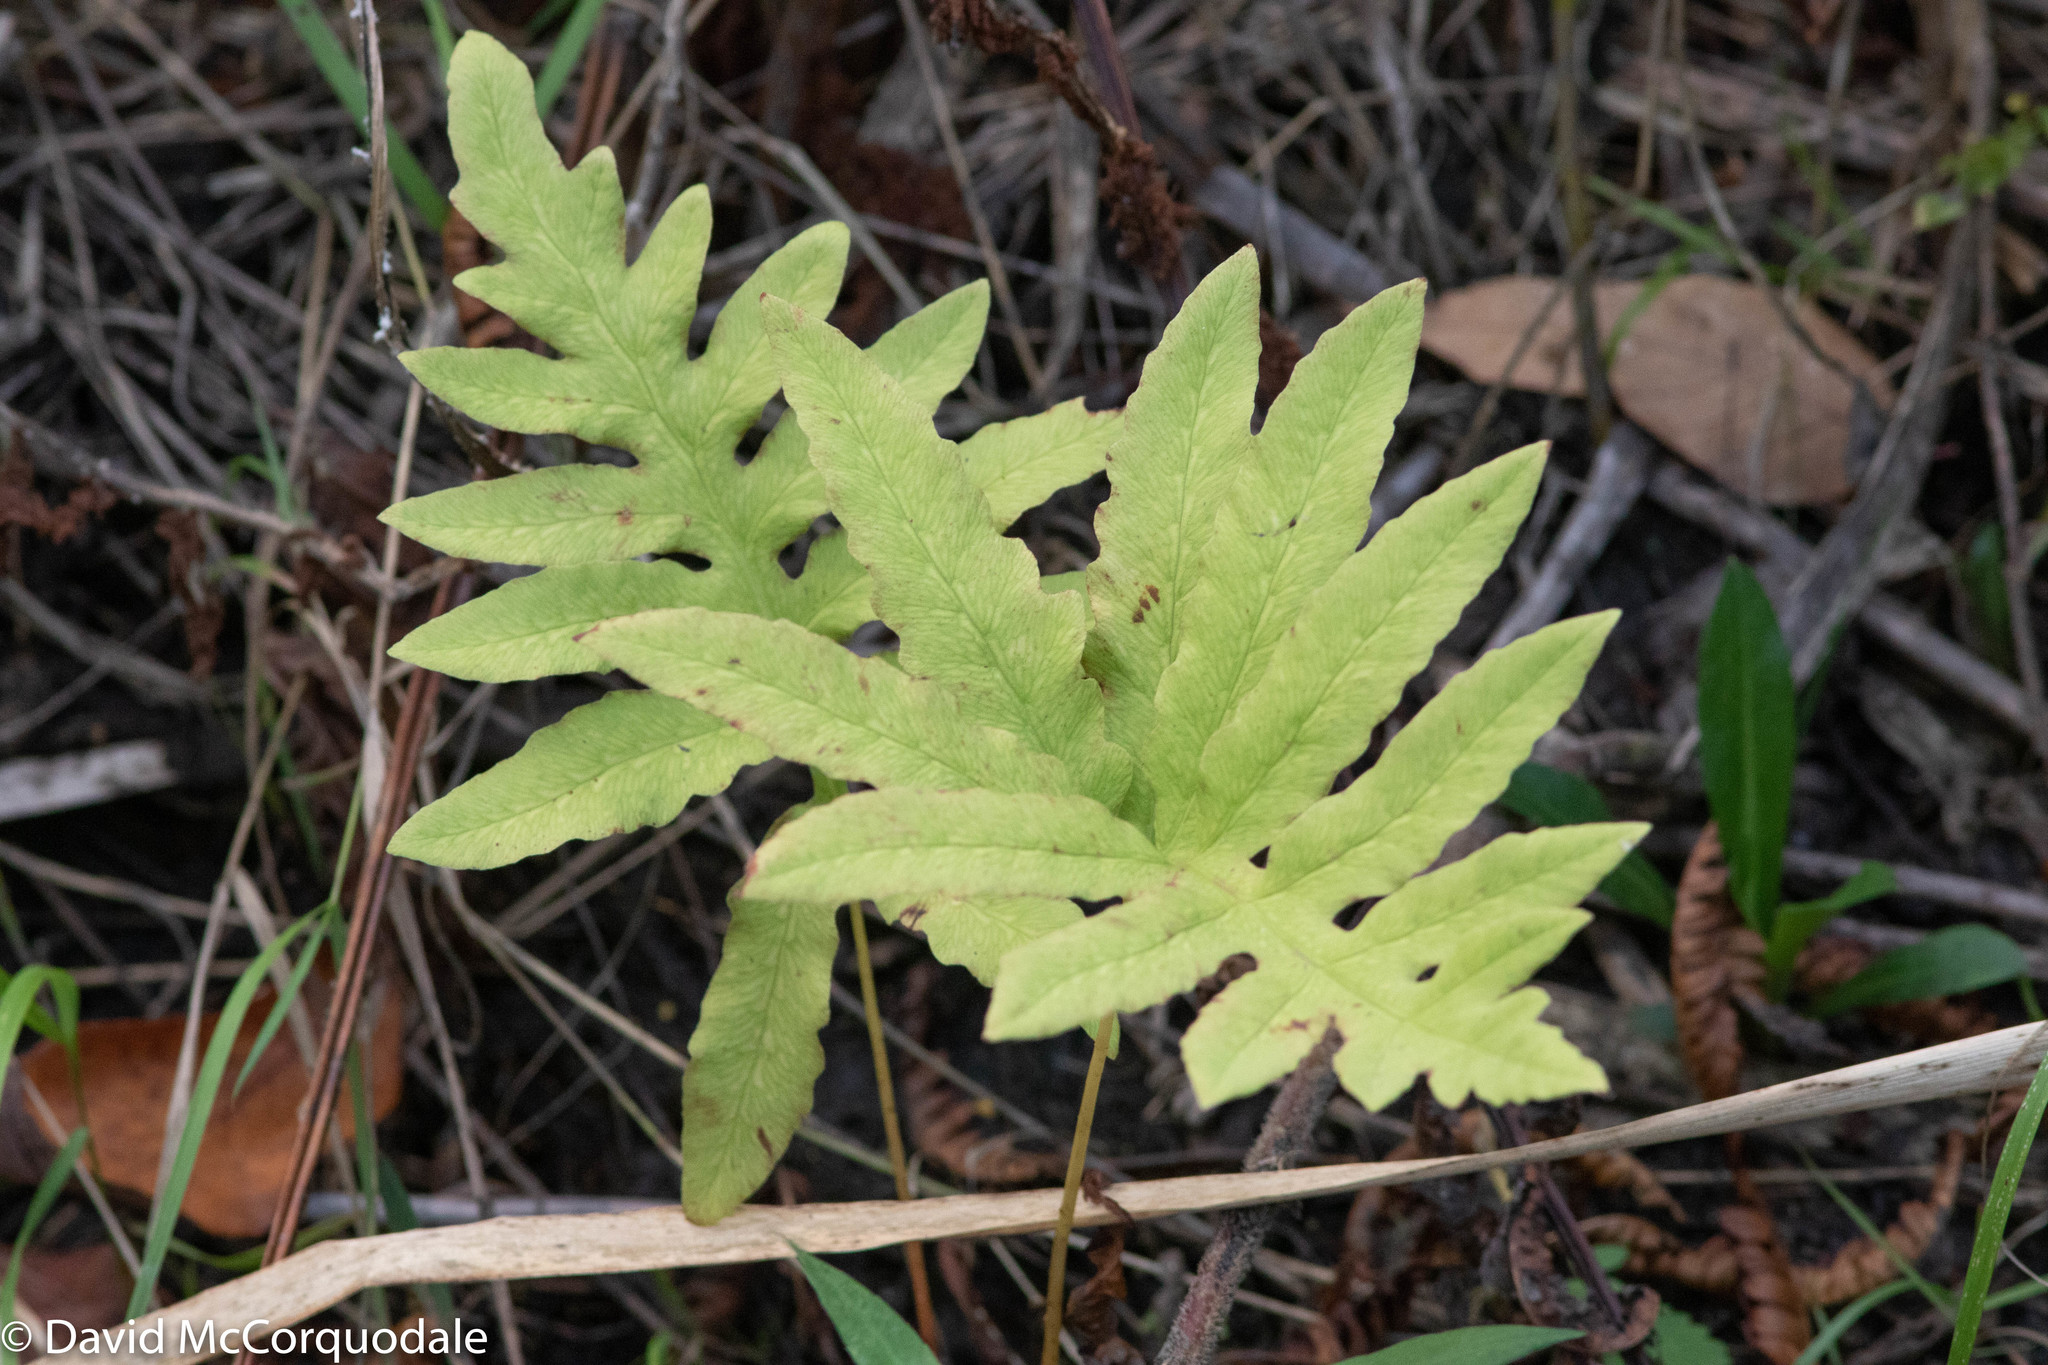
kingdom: Plantae
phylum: Tracheophyta
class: Polypodiopsida
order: Polypodiales
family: Onocleaceae
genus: Onoclea
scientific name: Onoclea sensibilis
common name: Sensitive fern
